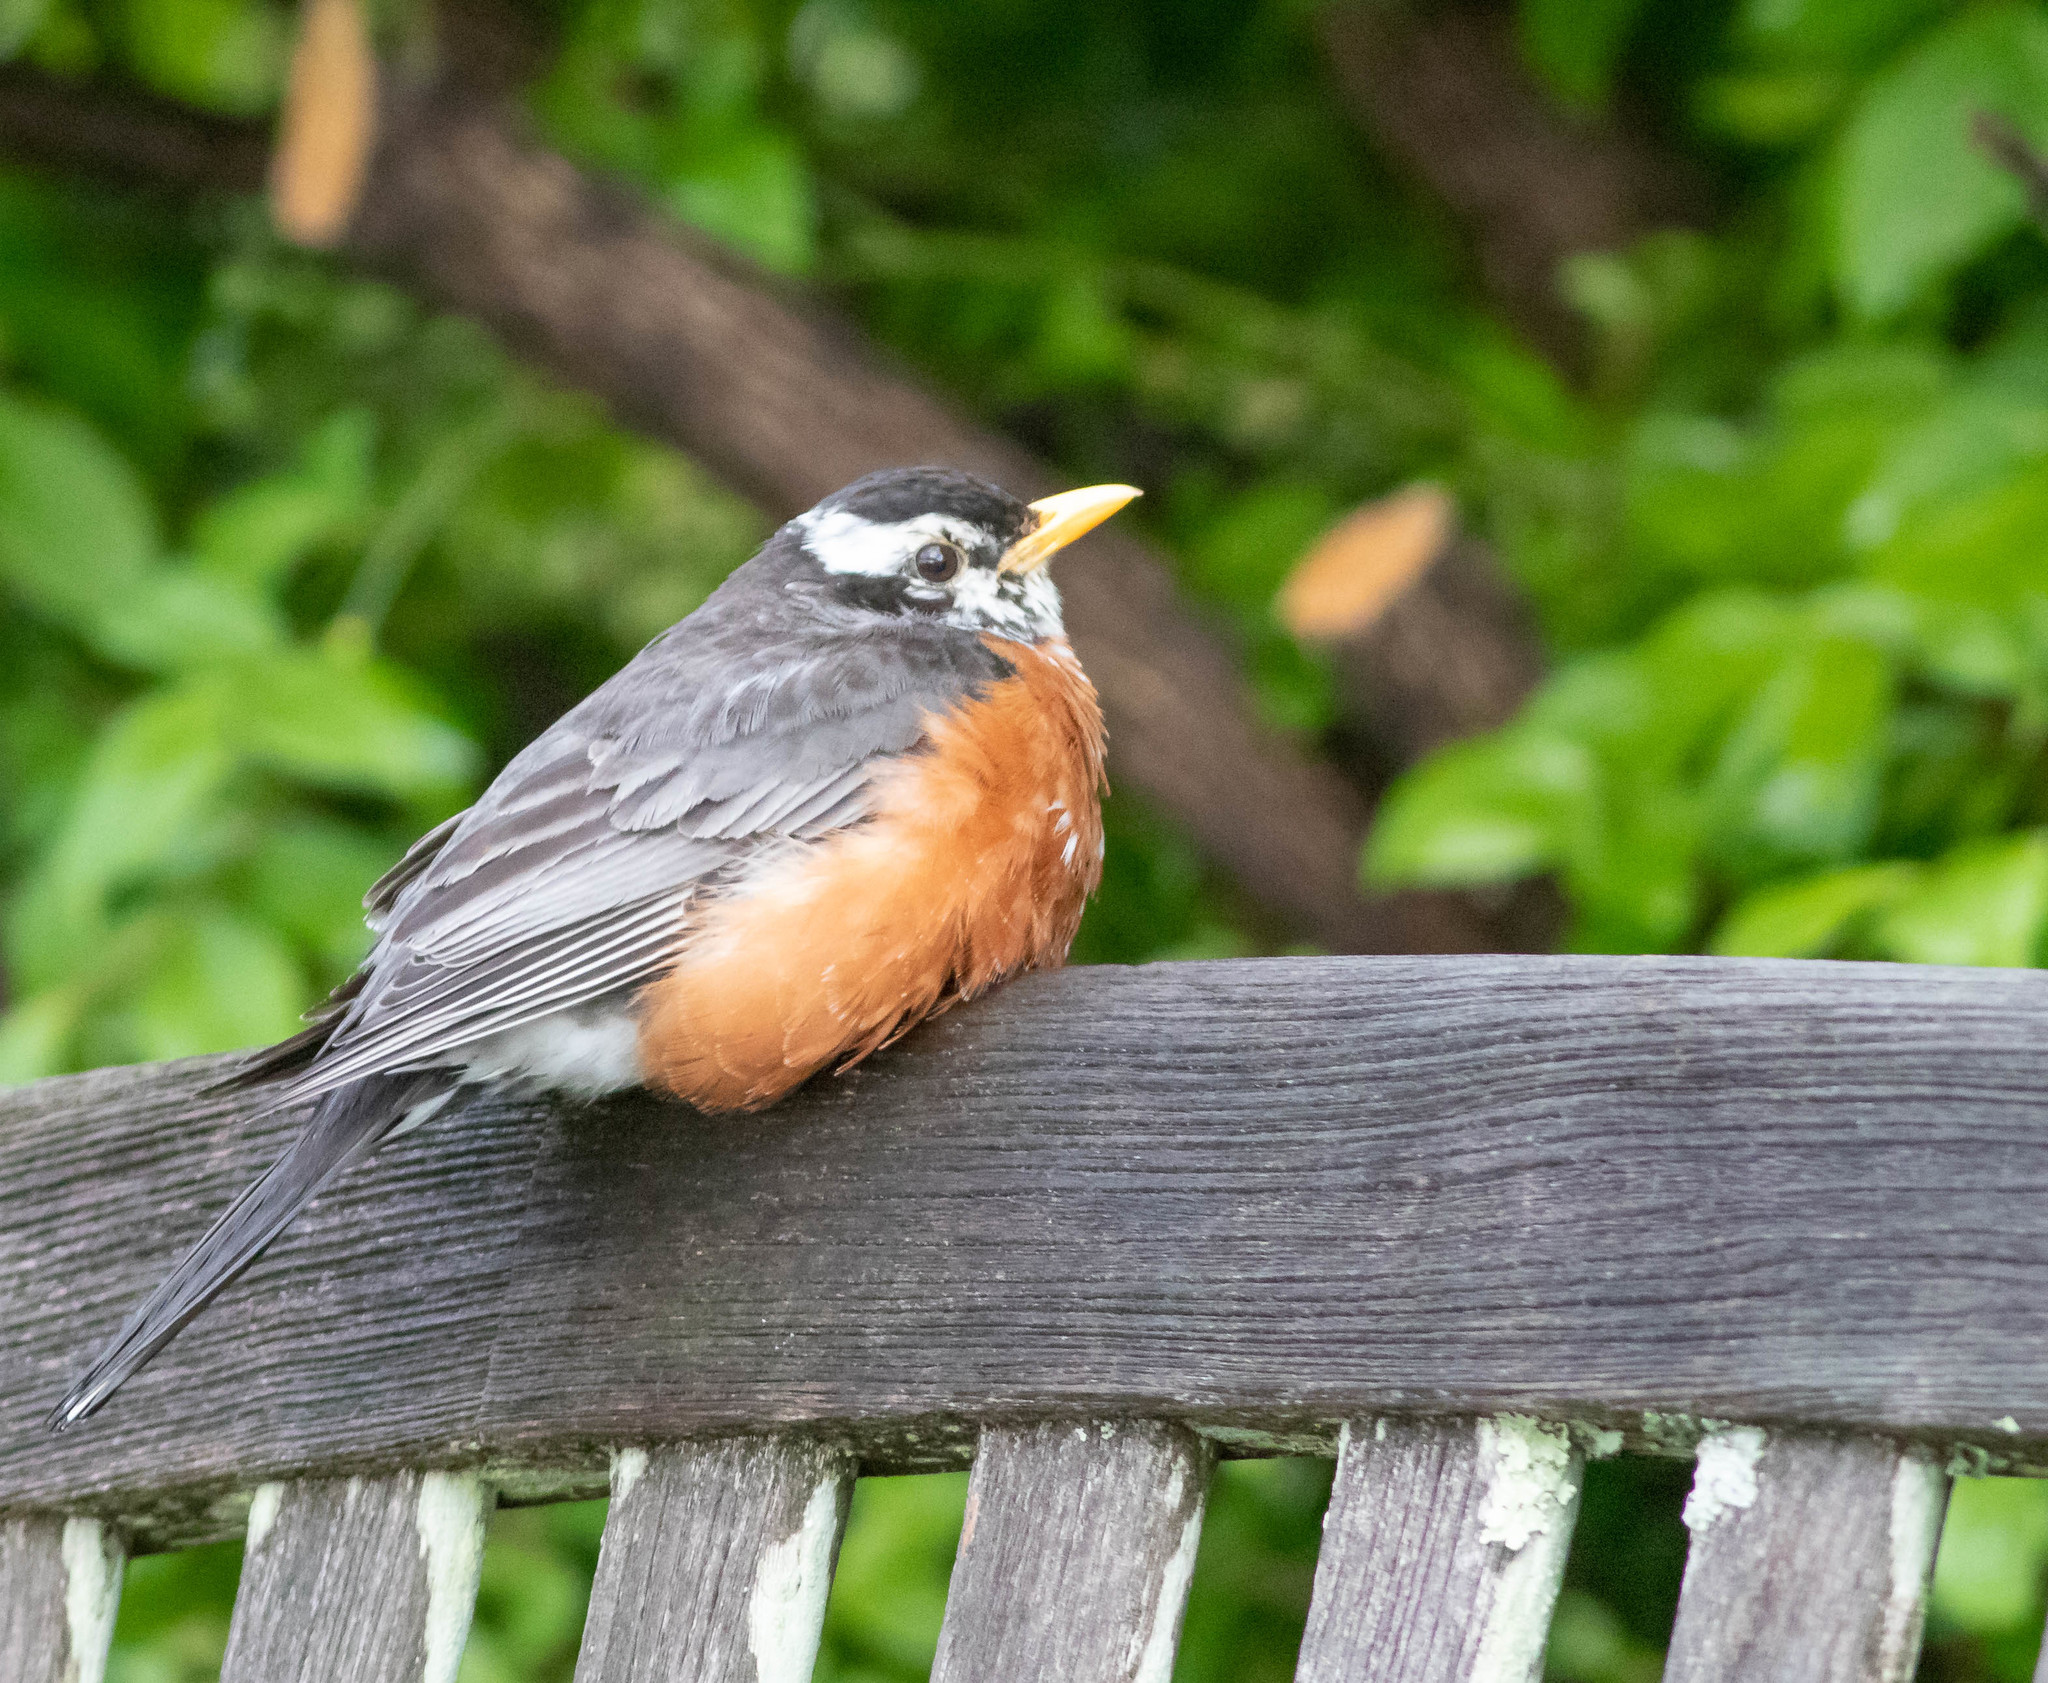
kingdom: Animalia
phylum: Chordata
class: Aves
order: Passeriformes
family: Turdidae
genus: Turdus
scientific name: Turdus migratorius
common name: American robin
